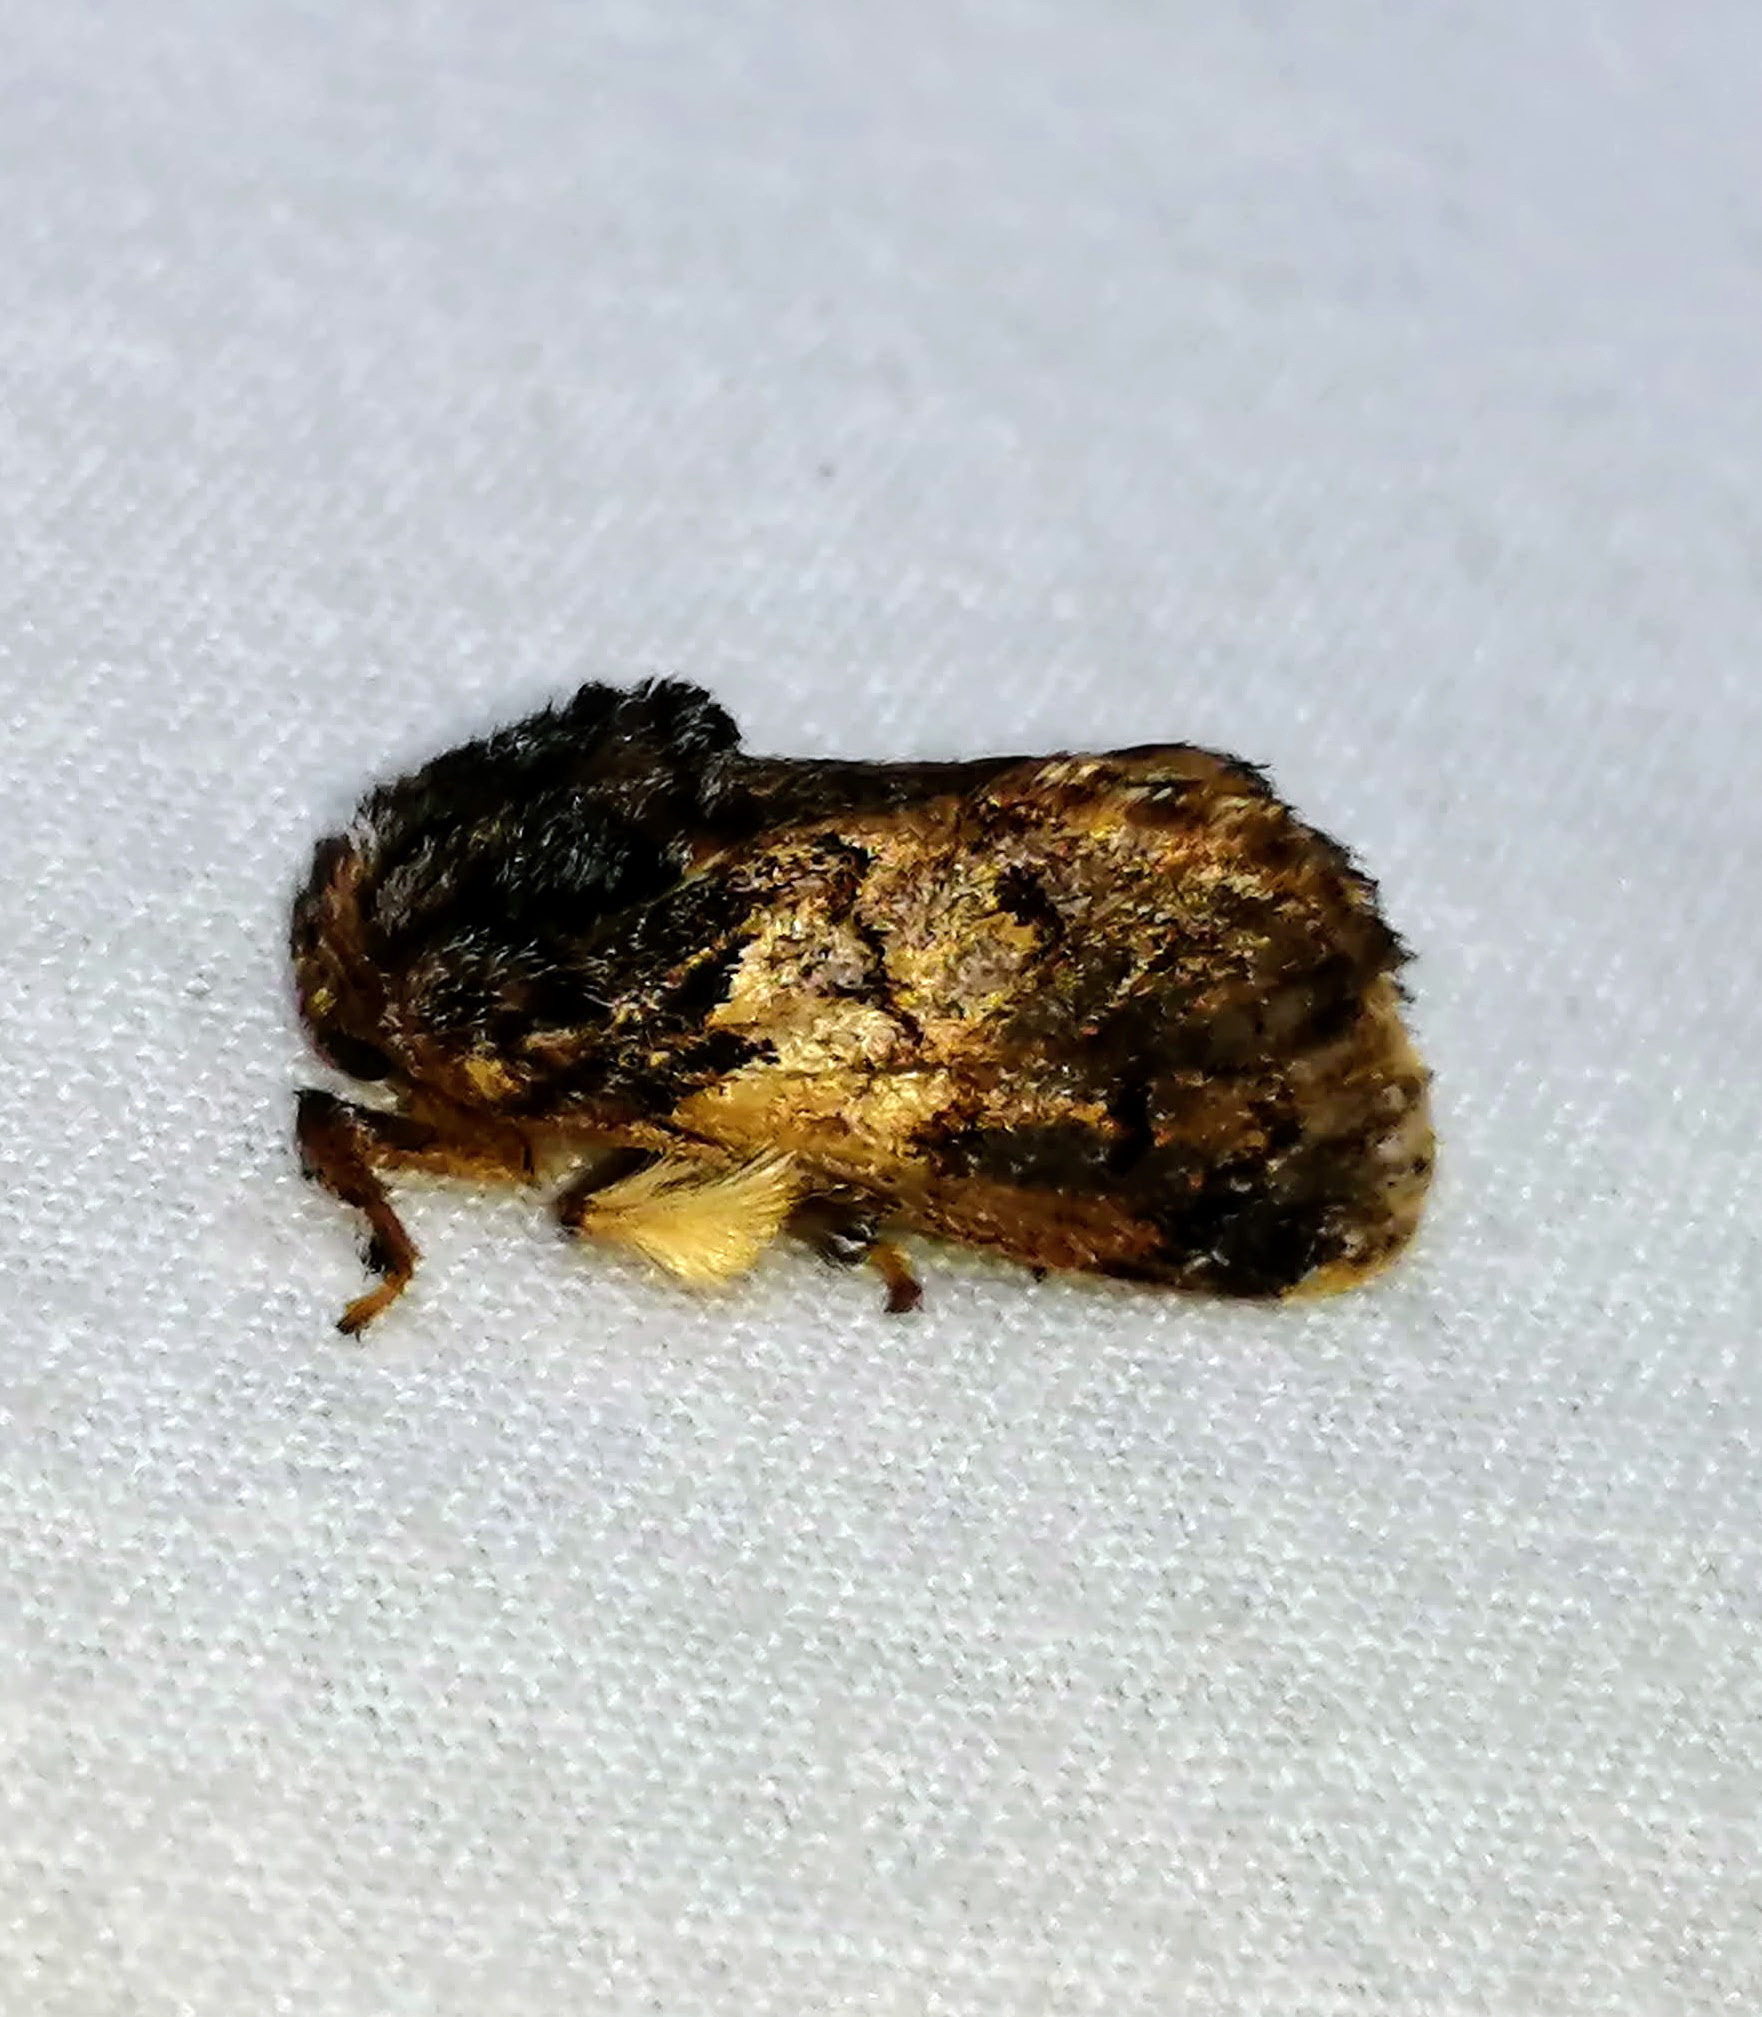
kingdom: Animalia
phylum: Arthropoda
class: Insecta
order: Lepidoptera
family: Limacodidae
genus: Phobetron
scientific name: Phobetron pithecium
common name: Hag moth
